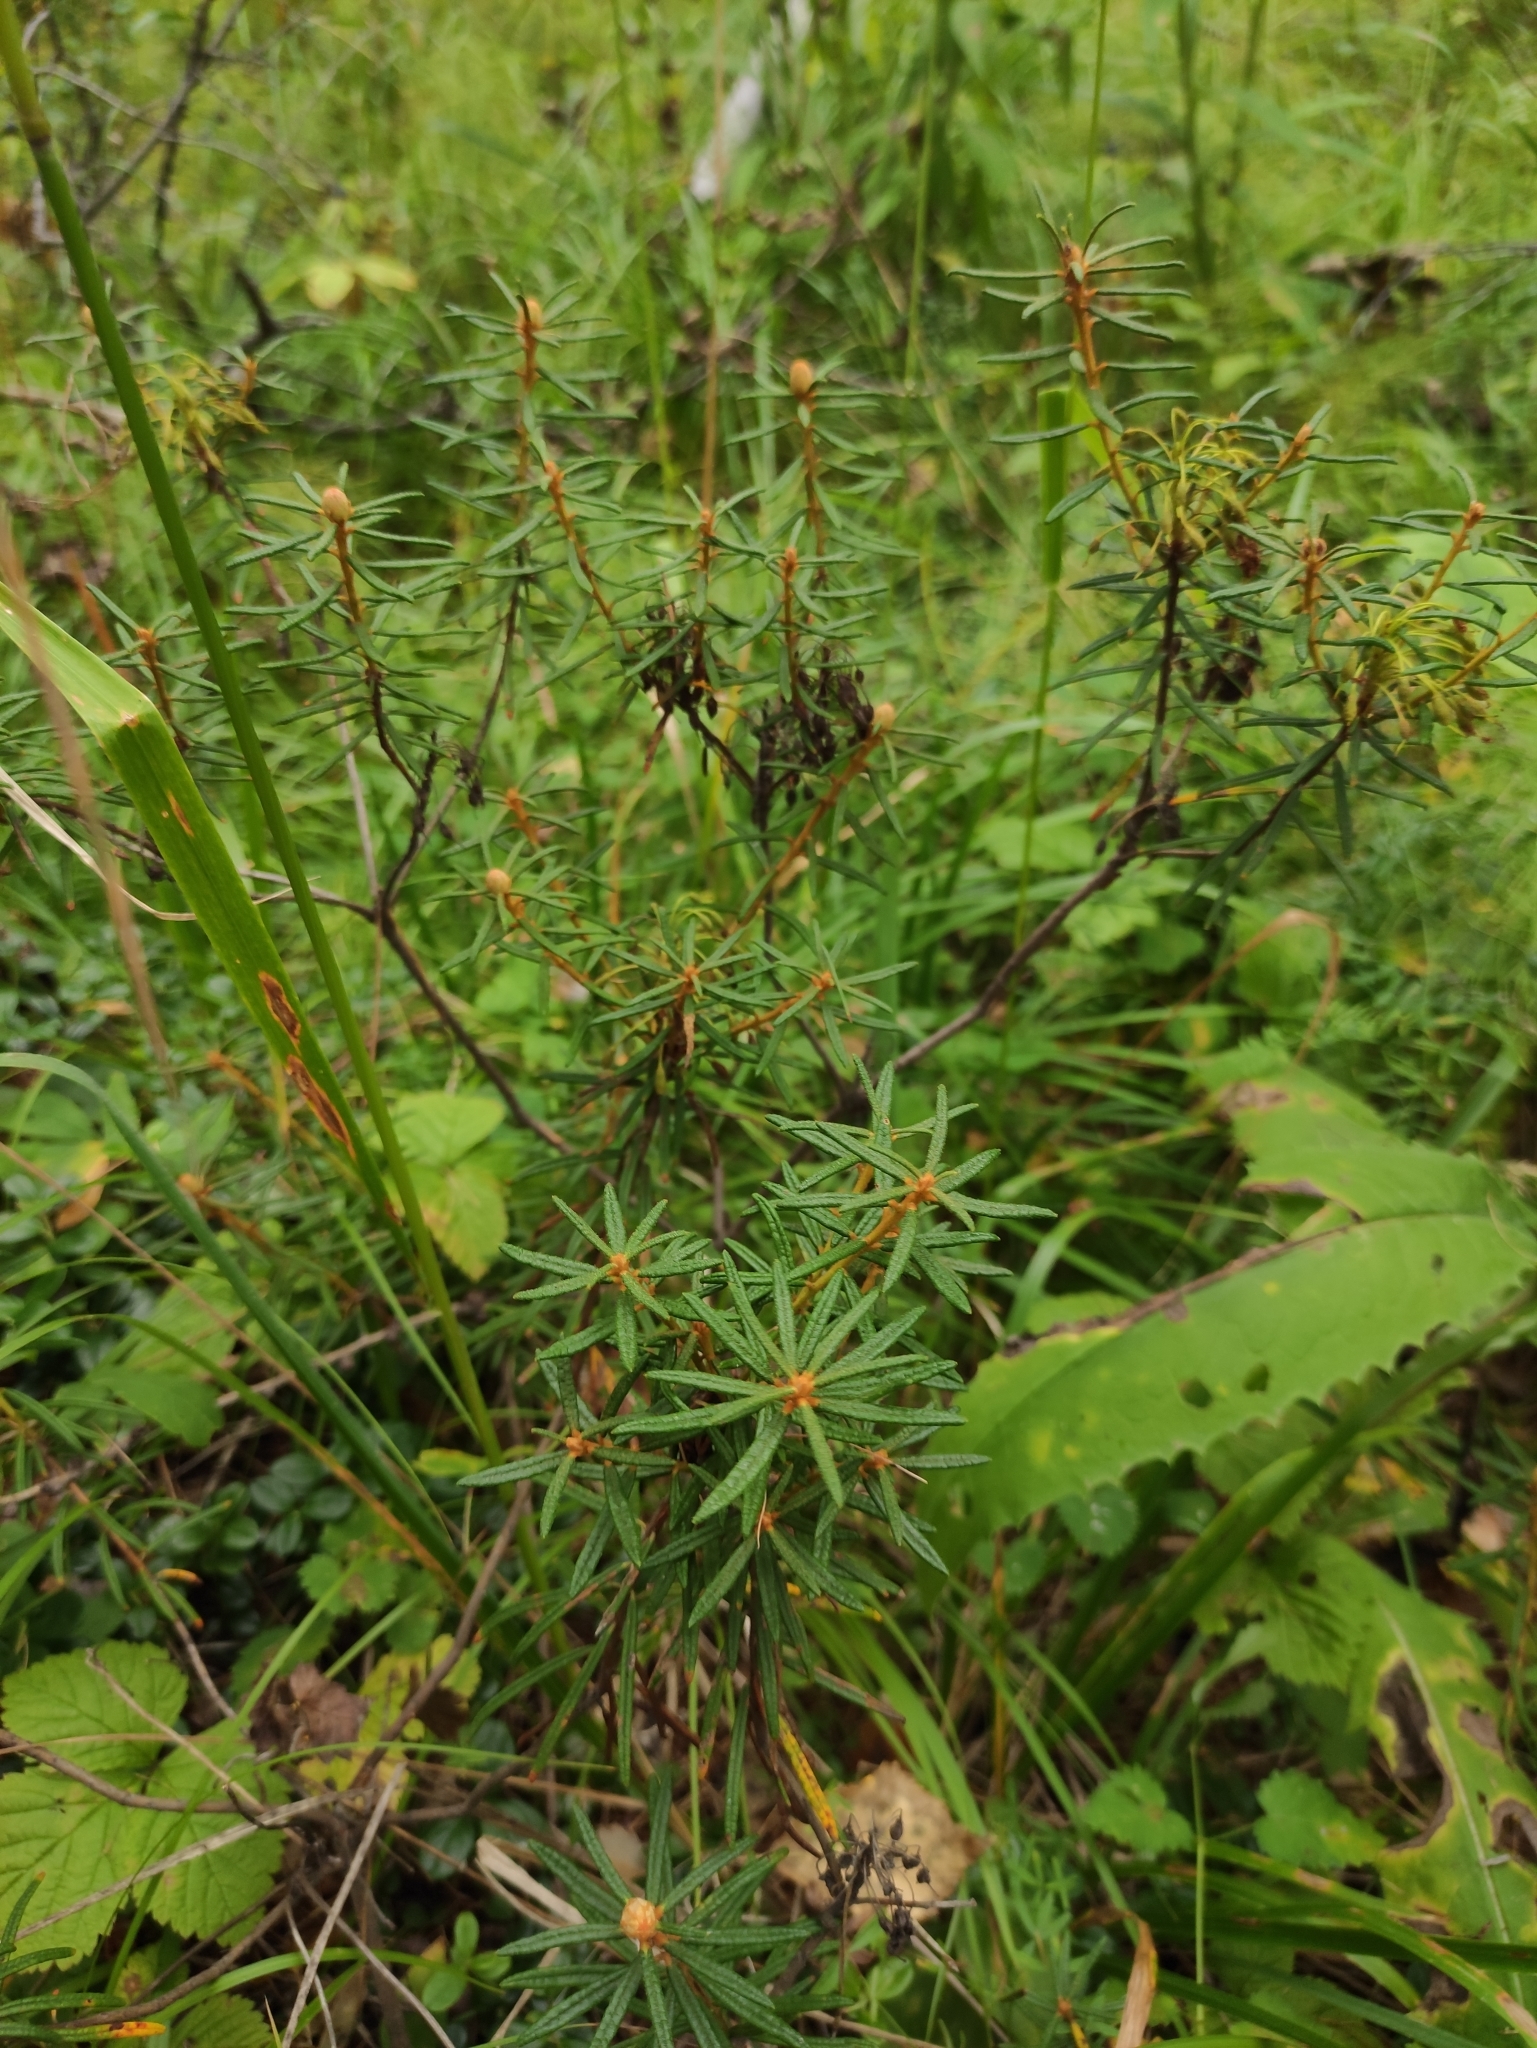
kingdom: Plantae
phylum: Tracheophyta
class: Magnoliopsida
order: Ericales
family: Ericaceae
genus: Rhododendron
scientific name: Rhododendron tomentosum
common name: Marsh labrador tea
